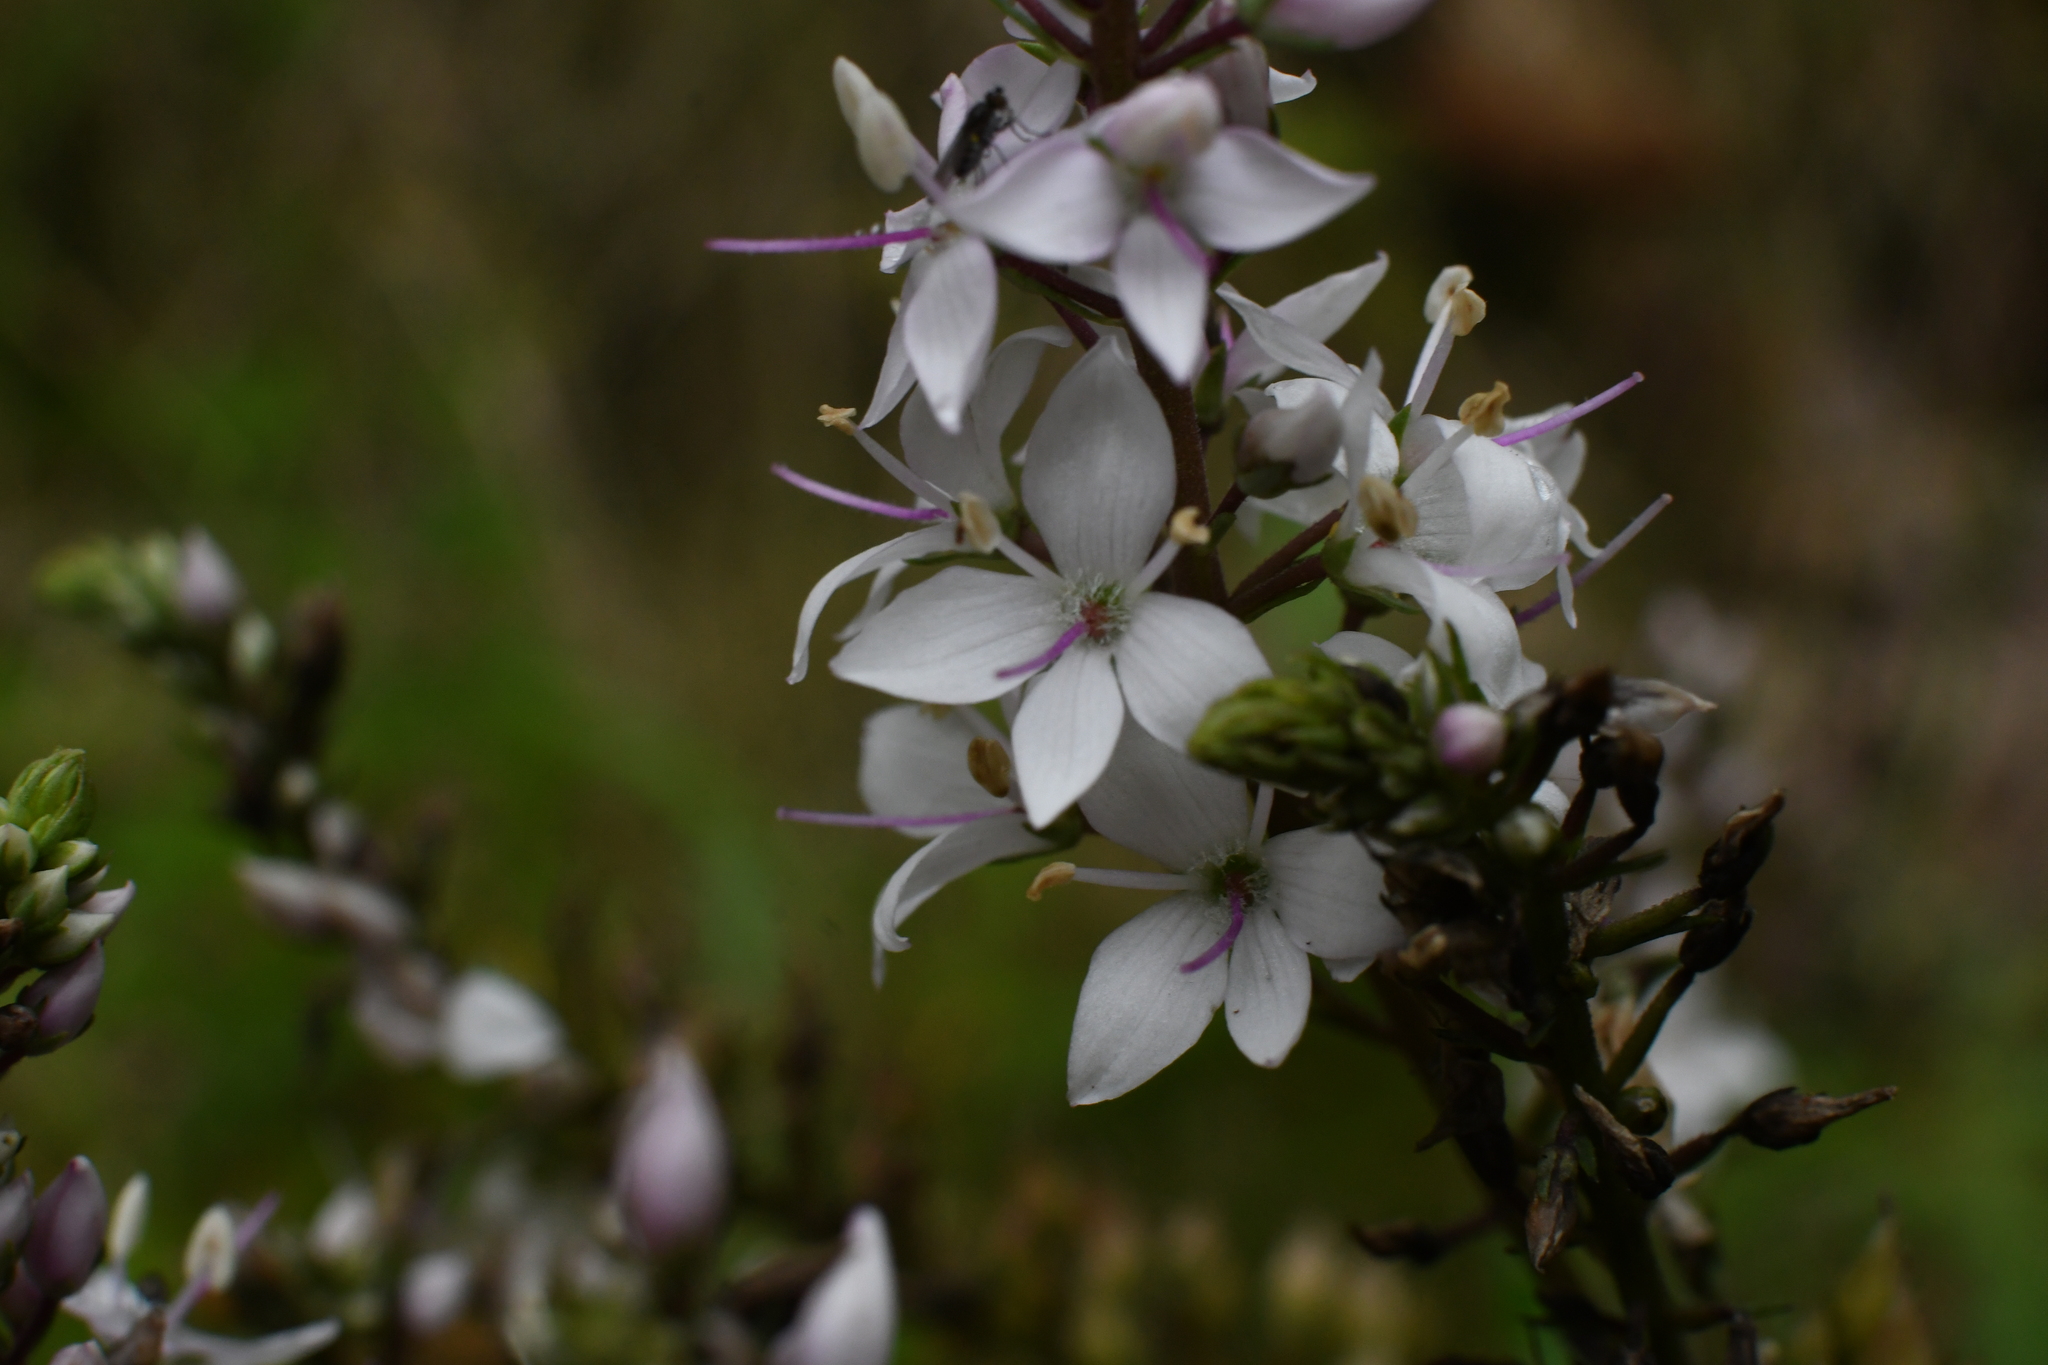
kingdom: Plantae
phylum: Tracheophyta
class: Magnoliopsida
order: Lamiales
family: Plantaginaceae
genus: Veronica
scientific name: Veronica derwentiana
